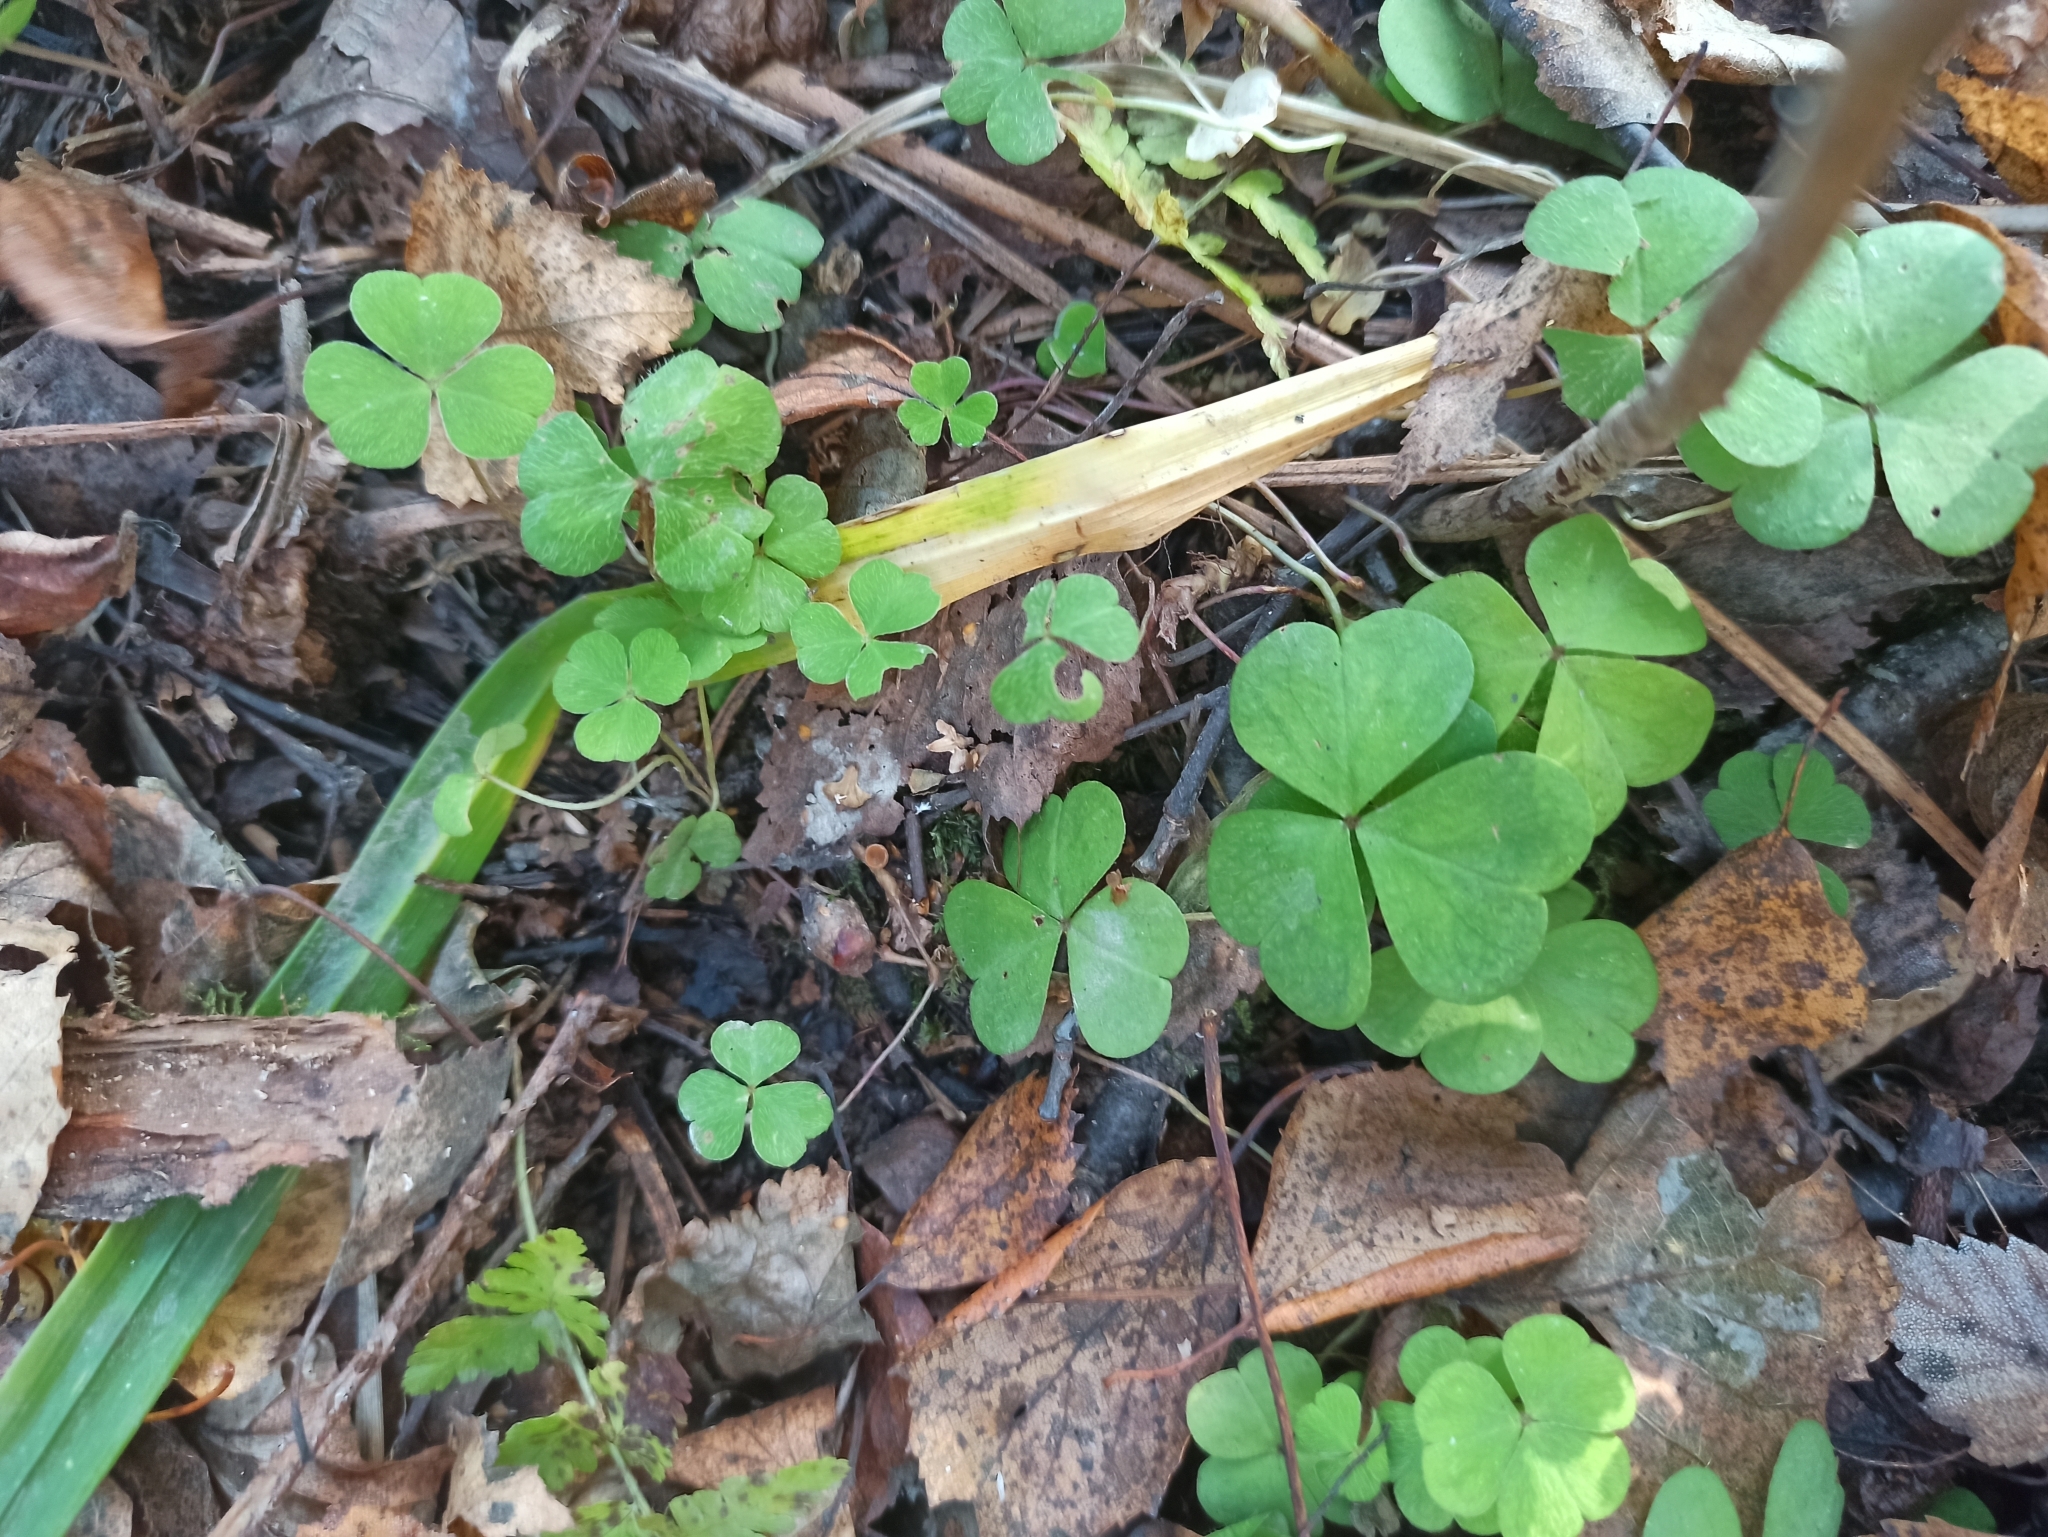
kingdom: Plantae
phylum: Tracheophyta
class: Magnoliopsida
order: Oxalidales
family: Oxalidaceae
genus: Oxalis
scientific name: Oxalis acetosella
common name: Wood-sorrel
